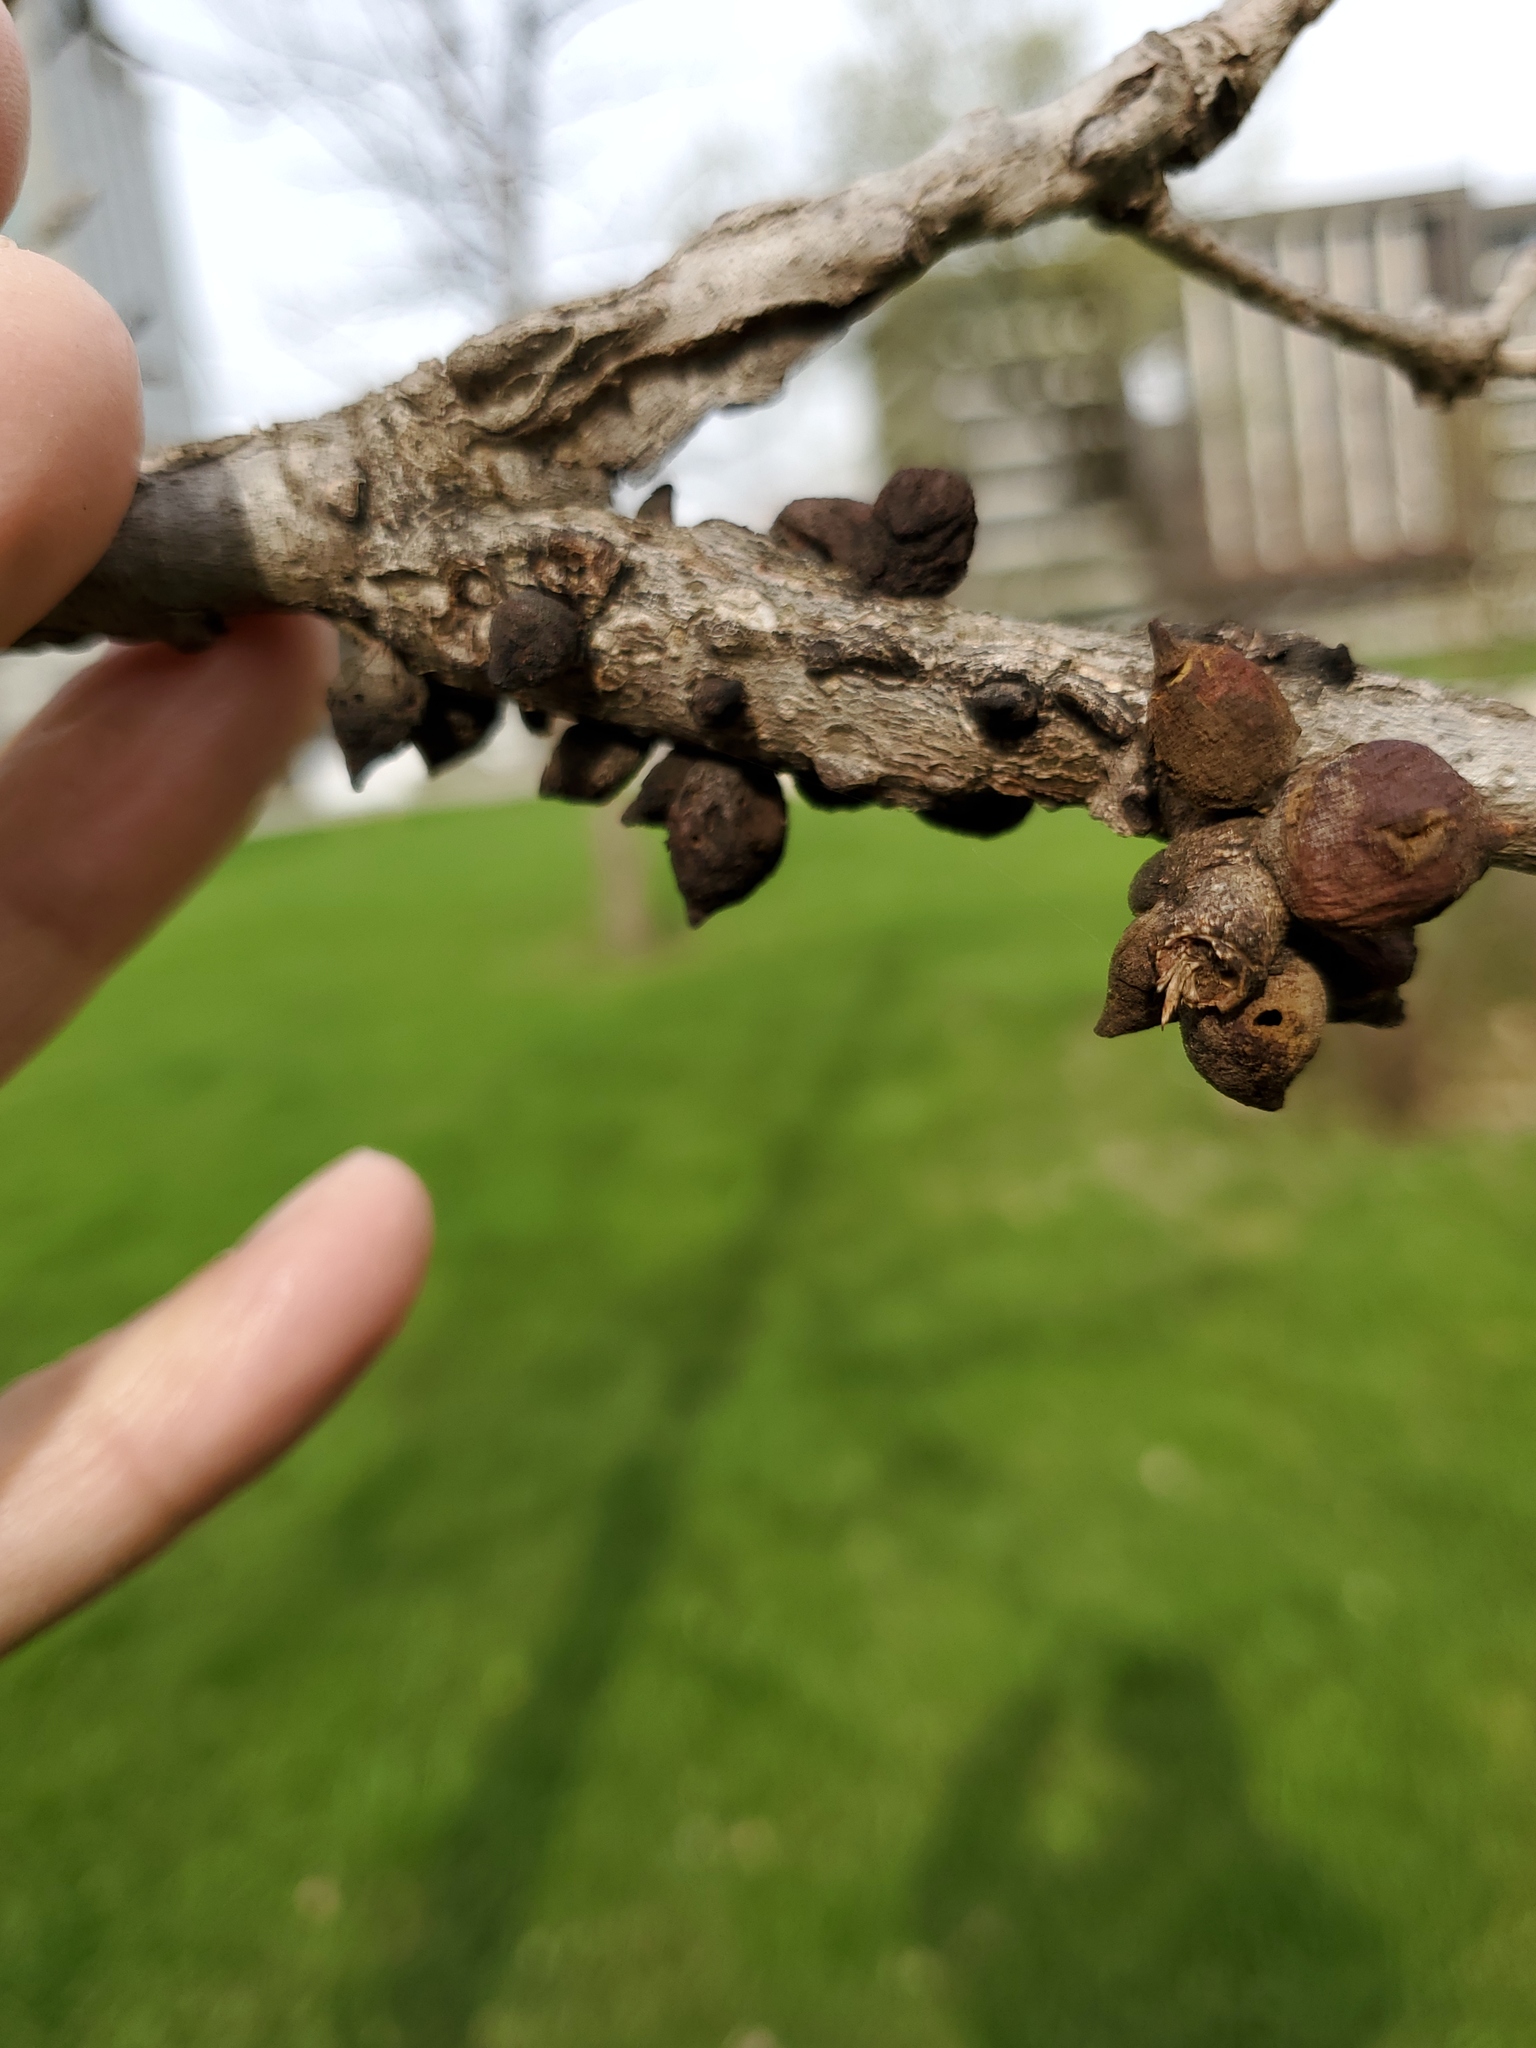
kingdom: Animalia
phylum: Arthropoda
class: Insecta
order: Hymenoptera
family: Cynipidae
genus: Disholcaspis
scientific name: Disholcaspis
